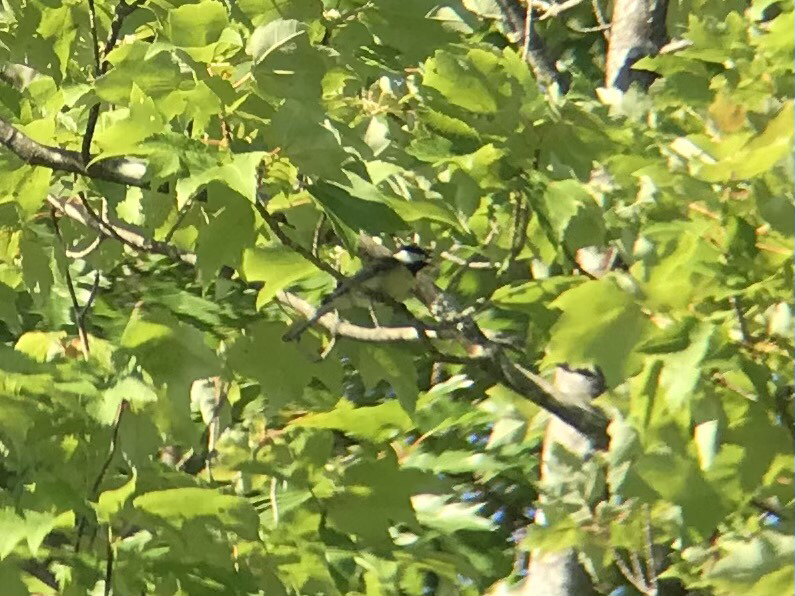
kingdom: Animalia
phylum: Chordata
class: Aves
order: Passeriformes
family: Paridae
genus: Poecile
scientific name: Poecile atricapillus
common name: Black-capped chickadee
